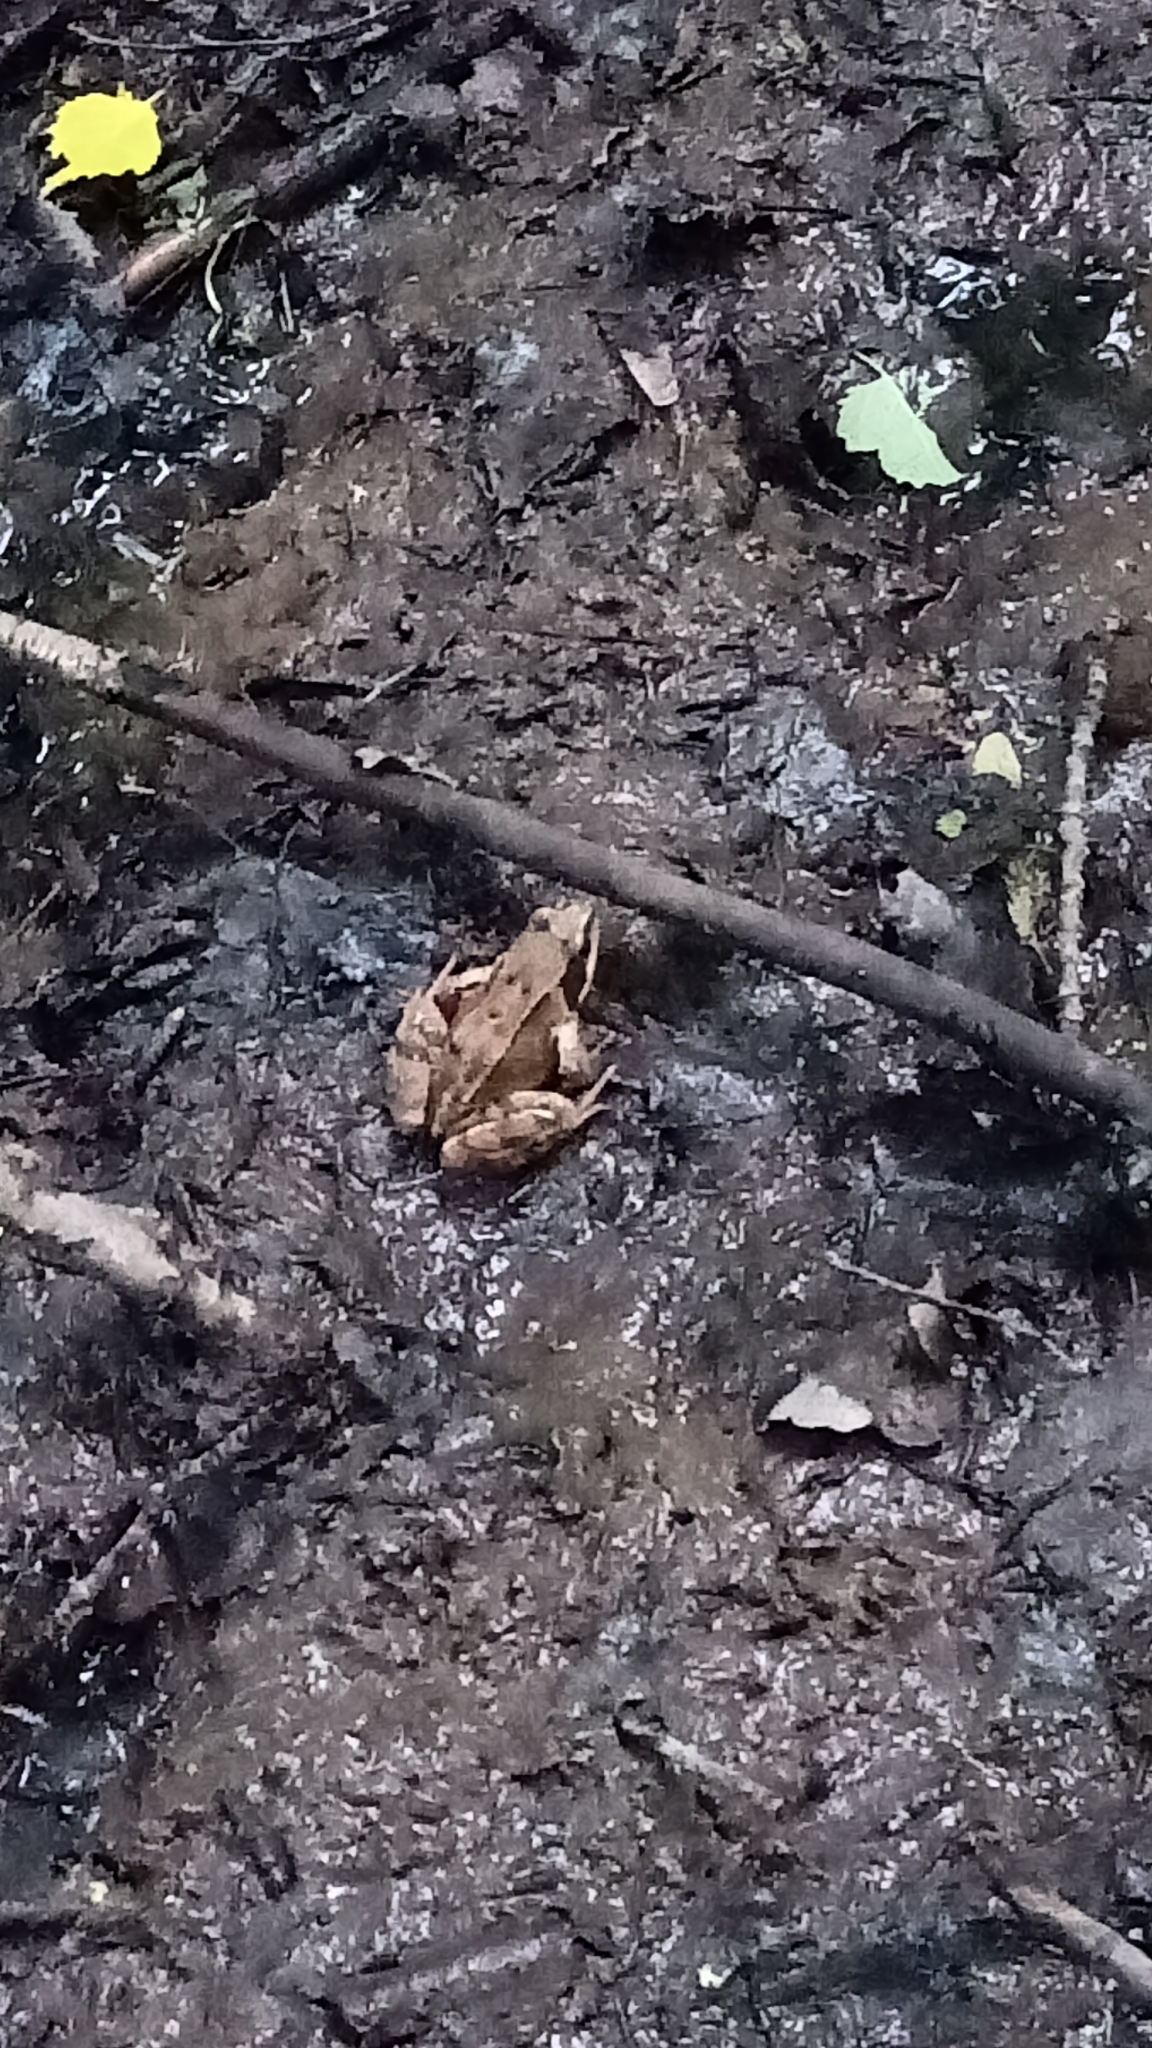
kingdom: Animalia
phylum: Chordata
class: Amphibia
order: Anura
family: Ranidae
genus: Rana
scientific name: Rana temporaria
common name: Common frog
